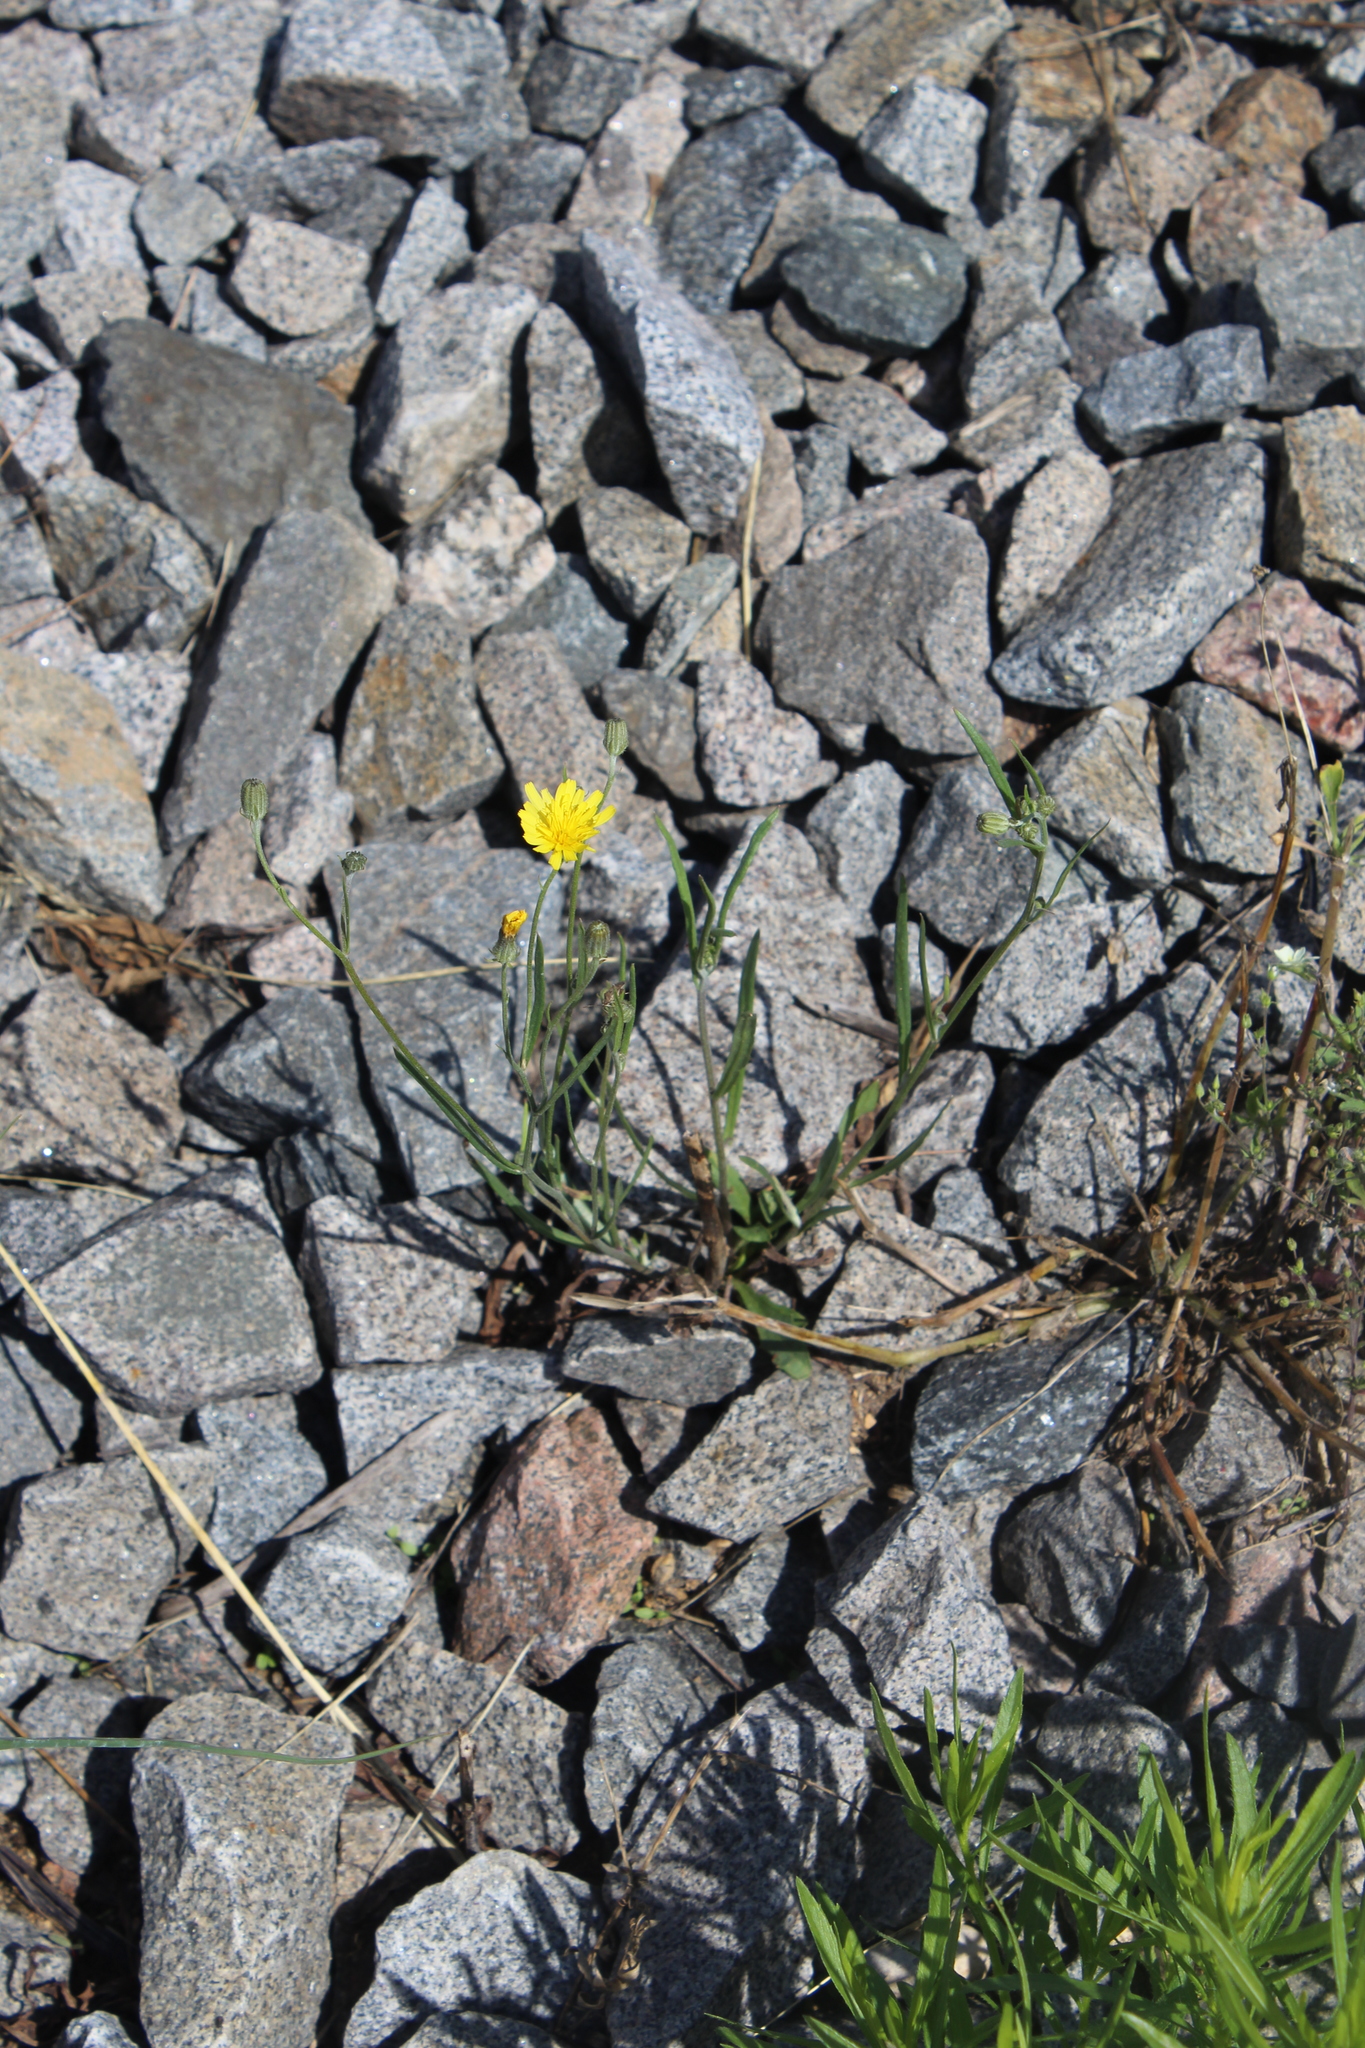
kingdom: Plantae
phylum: Tracheophyta
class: Magnoliopsida
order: Asterales
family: Asteraceae
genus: Crepis
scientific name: Crepis tectorum
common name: Narrow-leaved hawk's-beard
